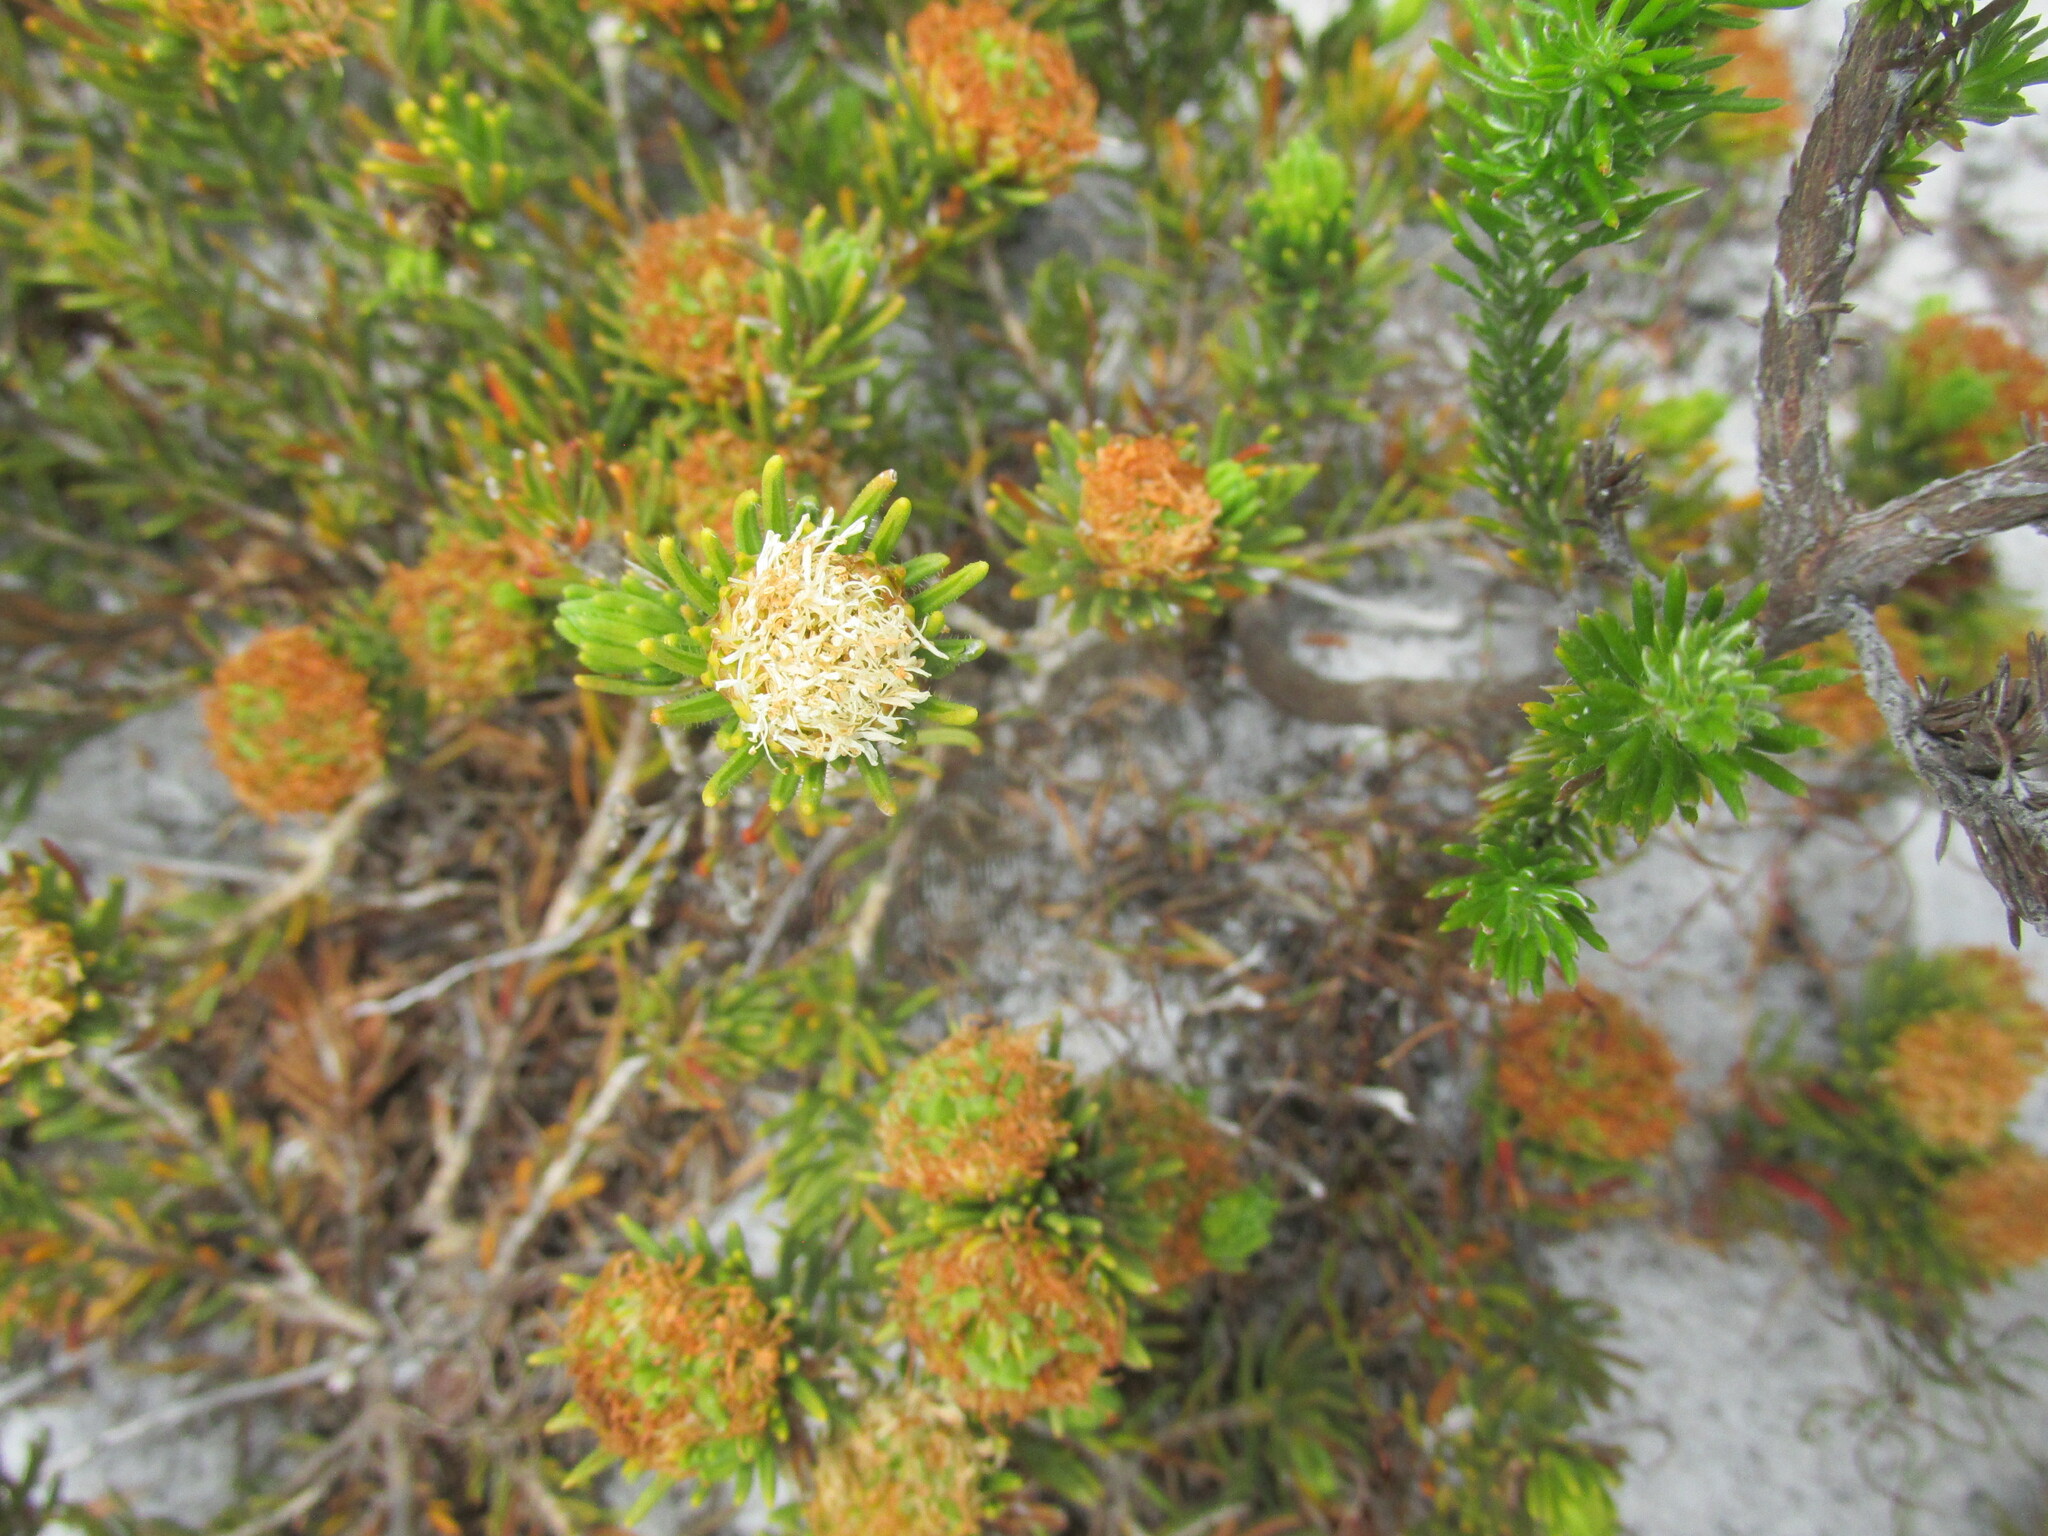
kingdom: Plantae
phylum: Tracheophyta
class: Magnoliopsida
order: Sapindales
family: Rutaceae
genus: Agathosma
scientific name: Agathosma hookeri
